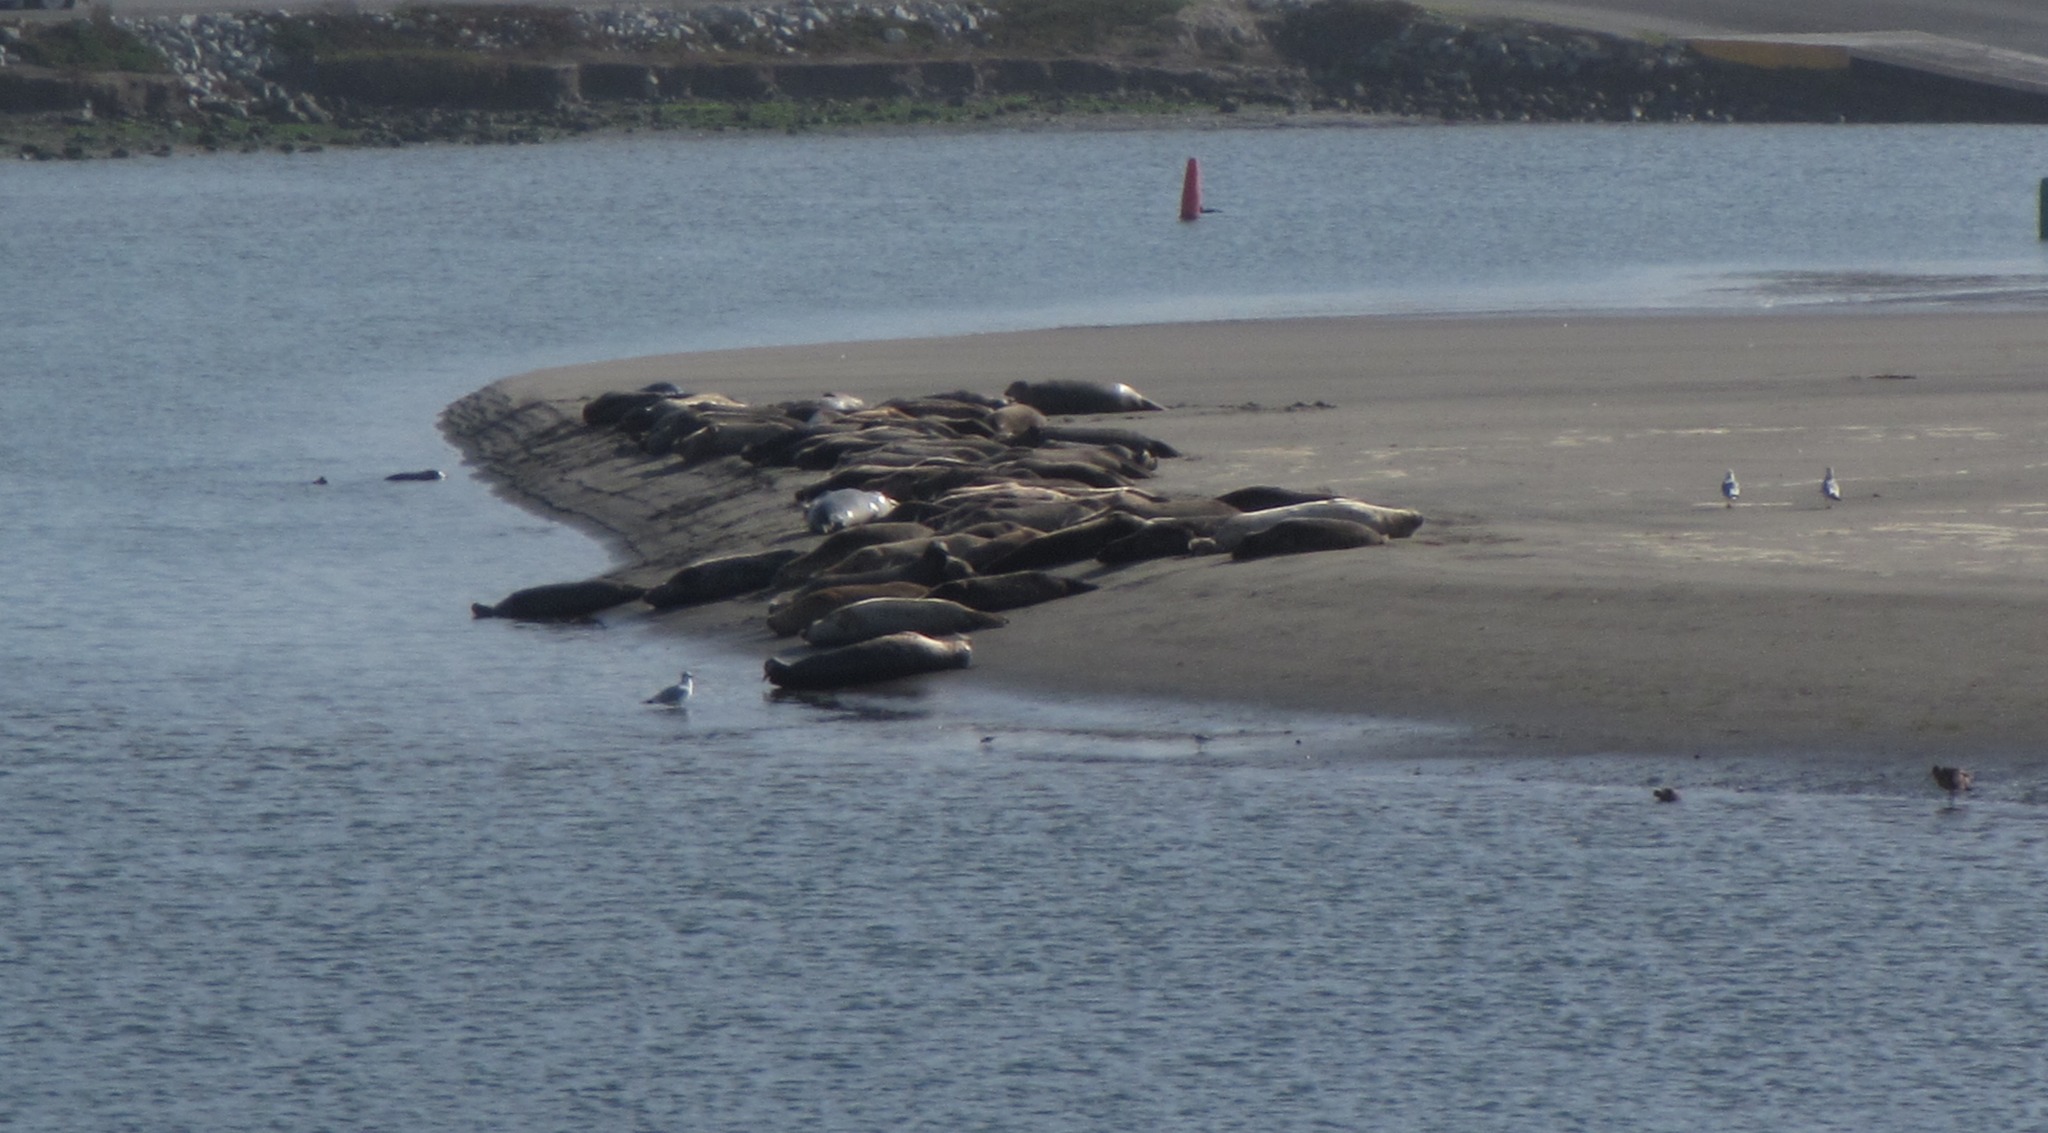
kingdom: Animalia
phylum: Chordata
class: Mammalia
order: Carnivora
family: Phocidae
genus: Phoca
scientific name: Phoca vitulina
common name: Harbor seal
